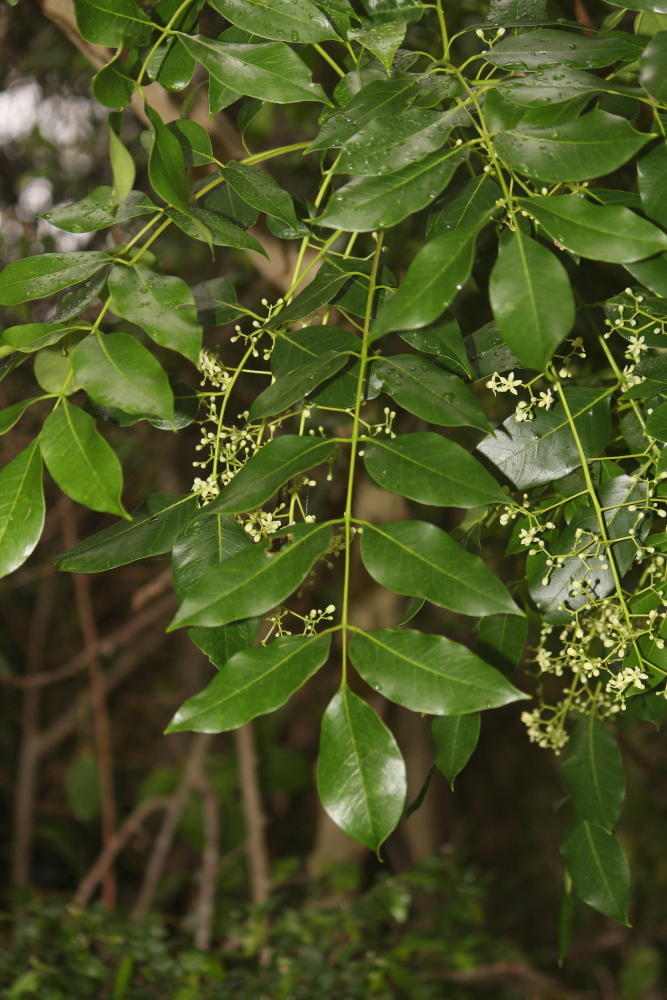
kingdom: Plantae
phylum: Tracheophyta
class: Magnoliopsida
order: Sapindales
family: Meliaceae
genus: Ekebergia
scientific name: Ekebergia capensis
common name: Cape-ash
